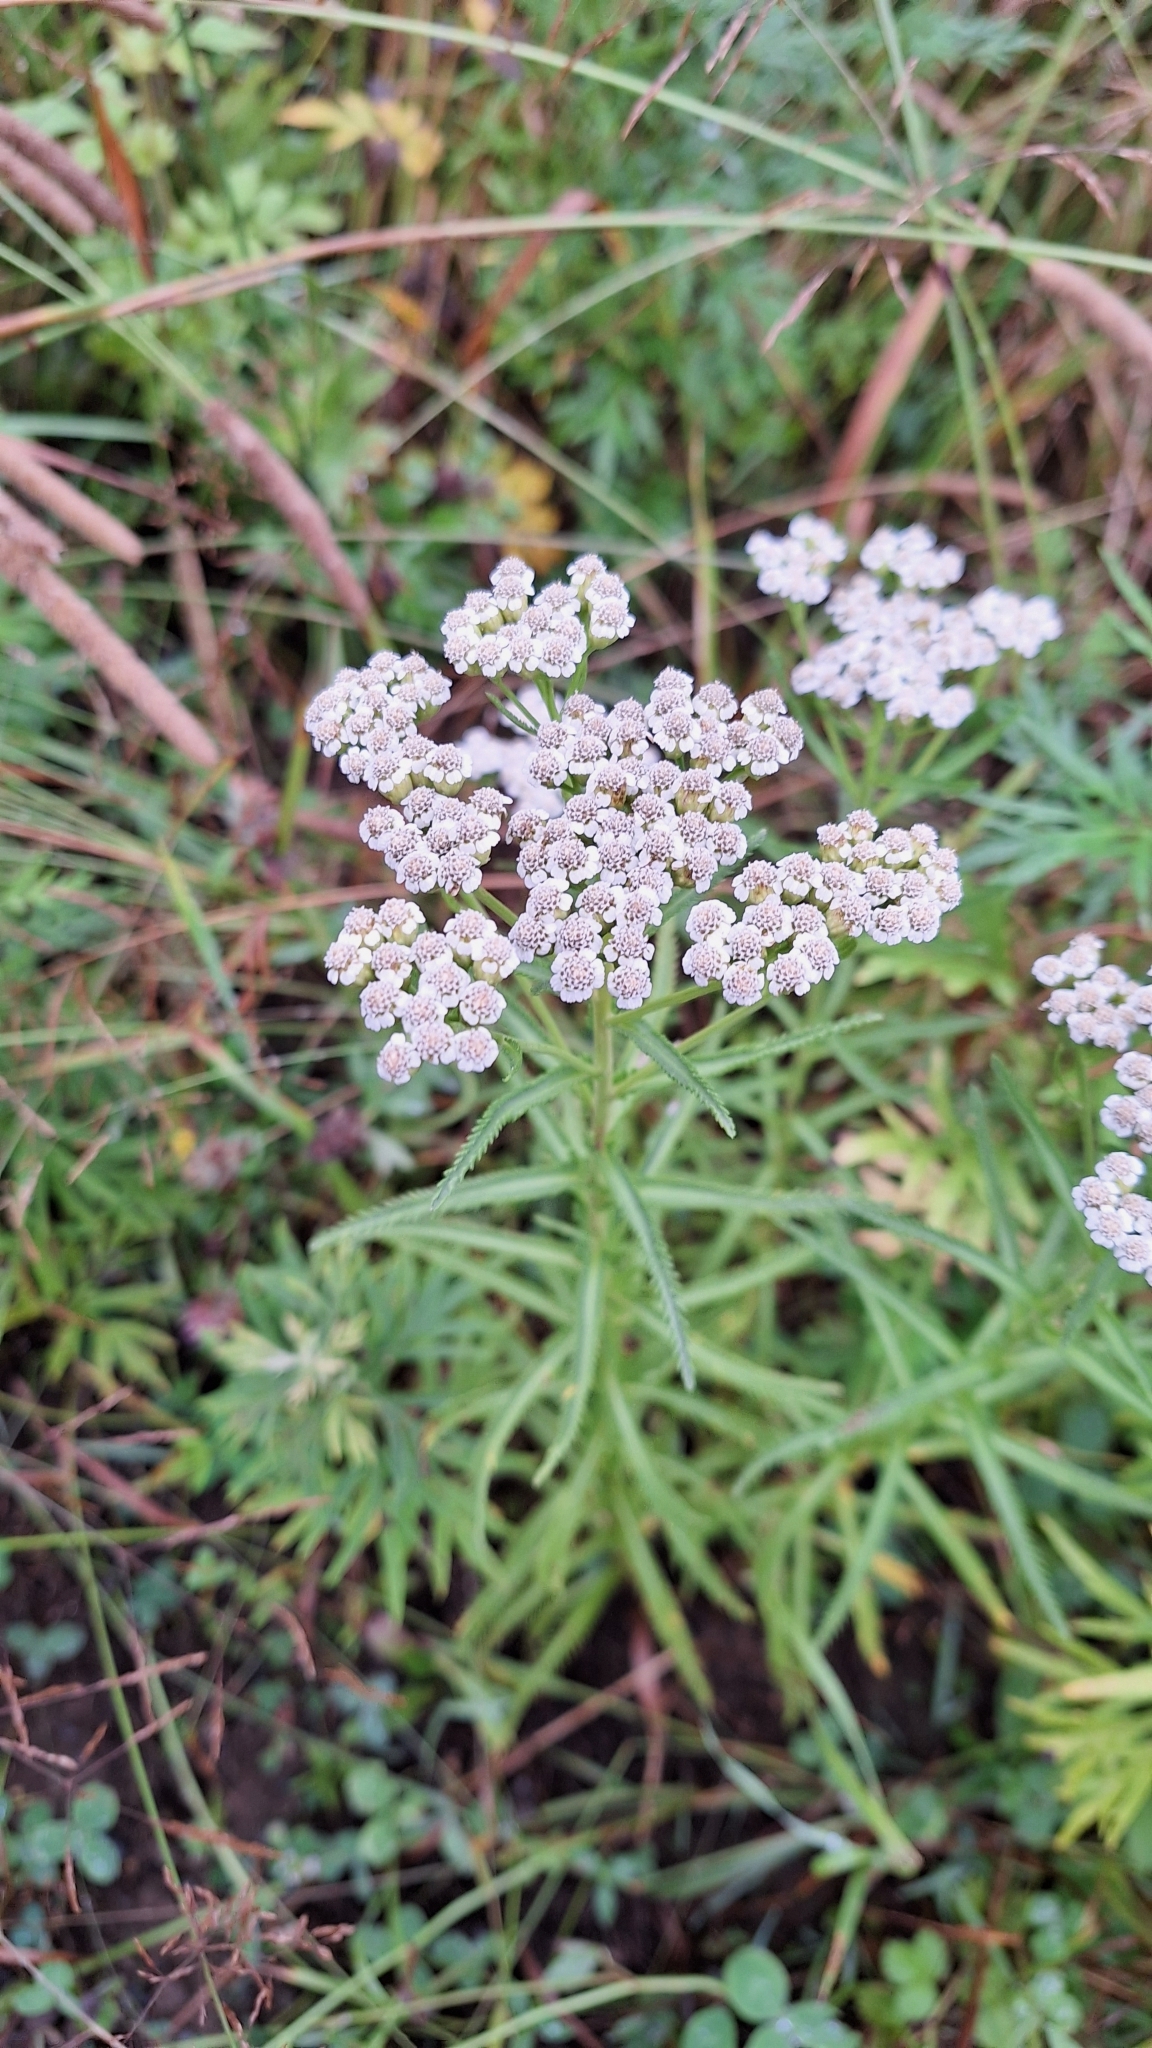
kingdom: Plantae
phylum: Tracheophyta
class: Magnoliopsida
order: Asterales
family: Asteraceae
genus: Achillea
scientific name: Achillea ptarmicoides
